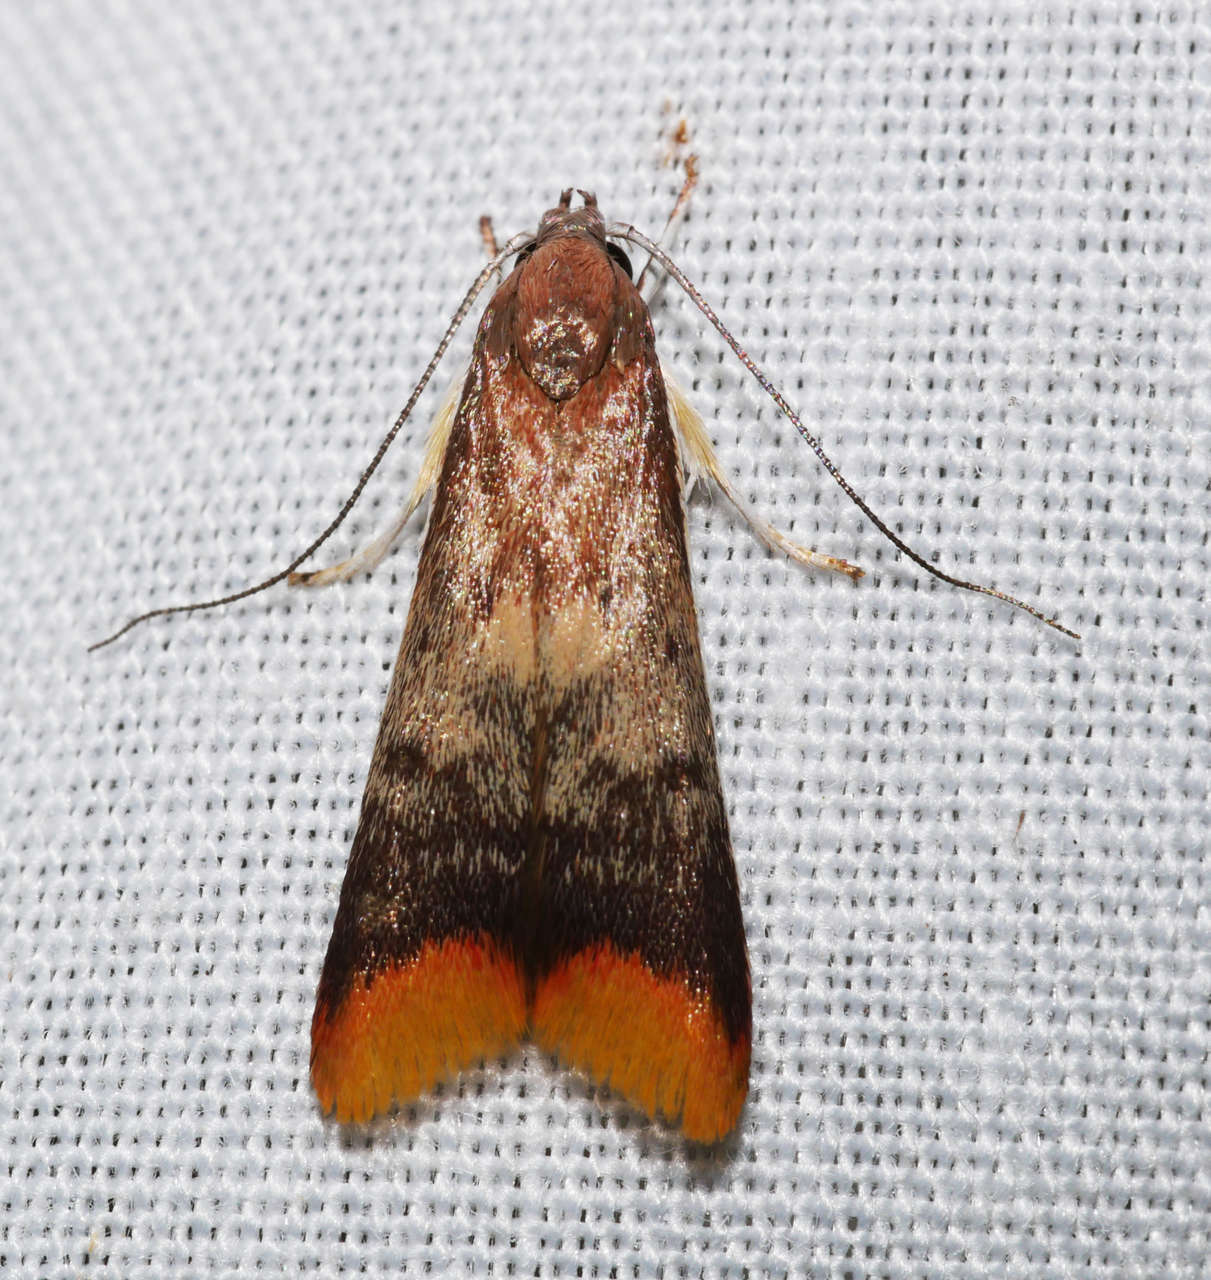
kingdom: Animalia
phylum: Arthropoda
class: Insecta
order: Lepidoptera
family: Oecophoridae
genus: Hemibela
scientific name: Hemibela callista
